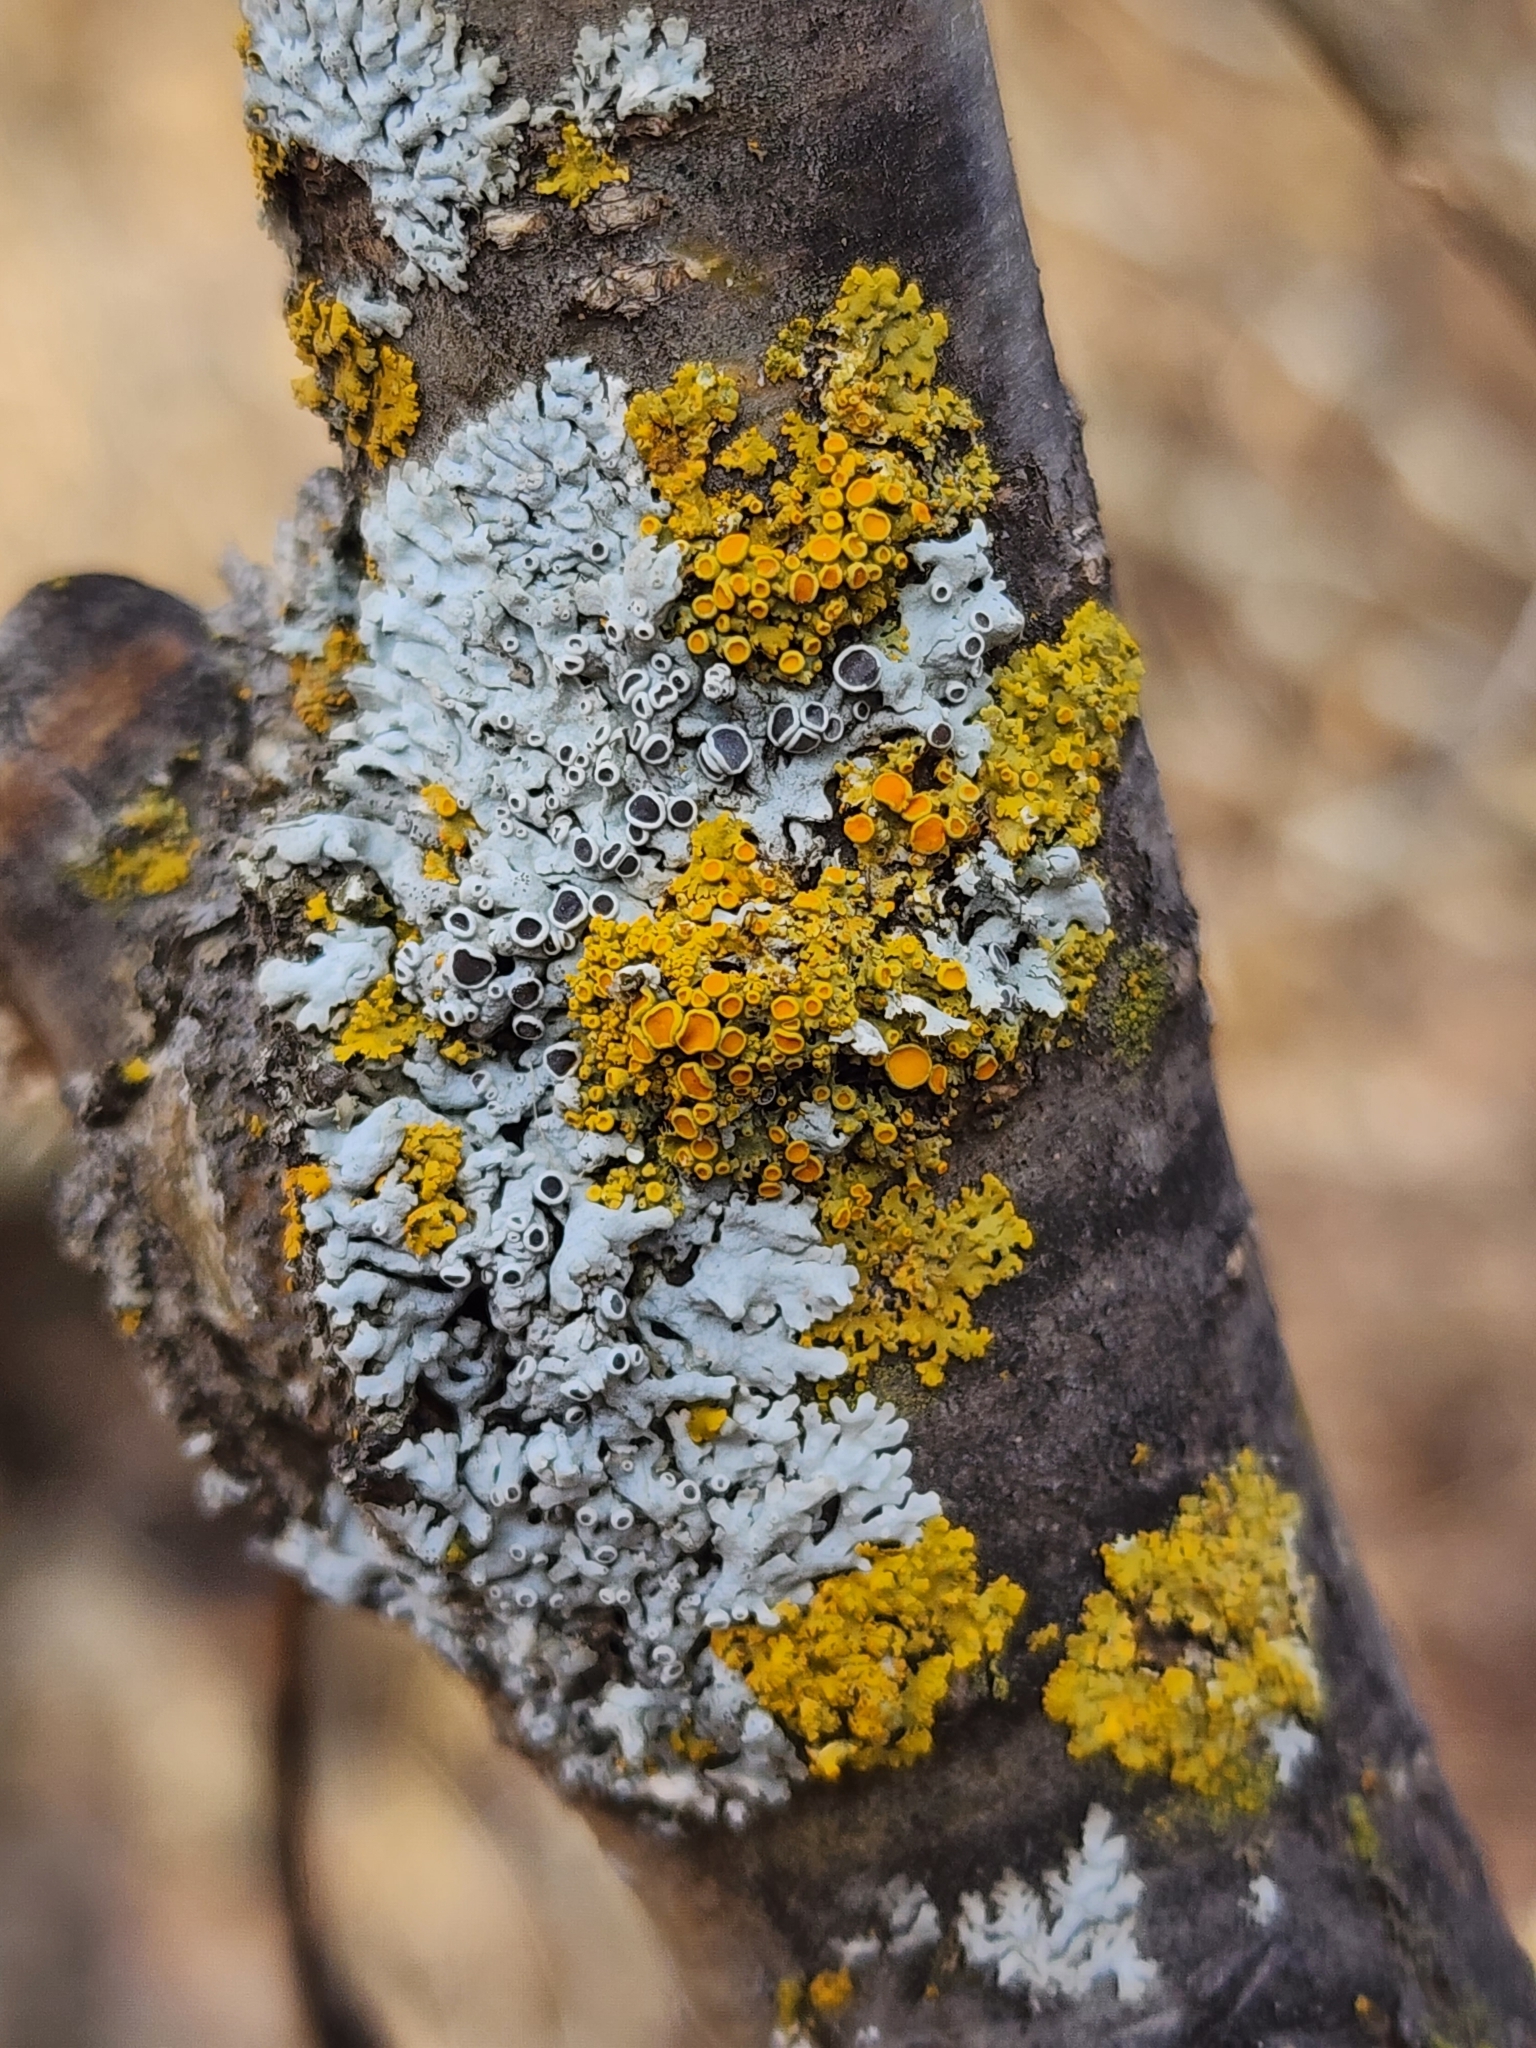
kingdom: Fungi
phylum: Ascomycota
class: Lecanoromycetes
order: Teloschistales
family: Teloschistaceae
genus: Gallowayella
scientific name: Gallowayella hasseana
